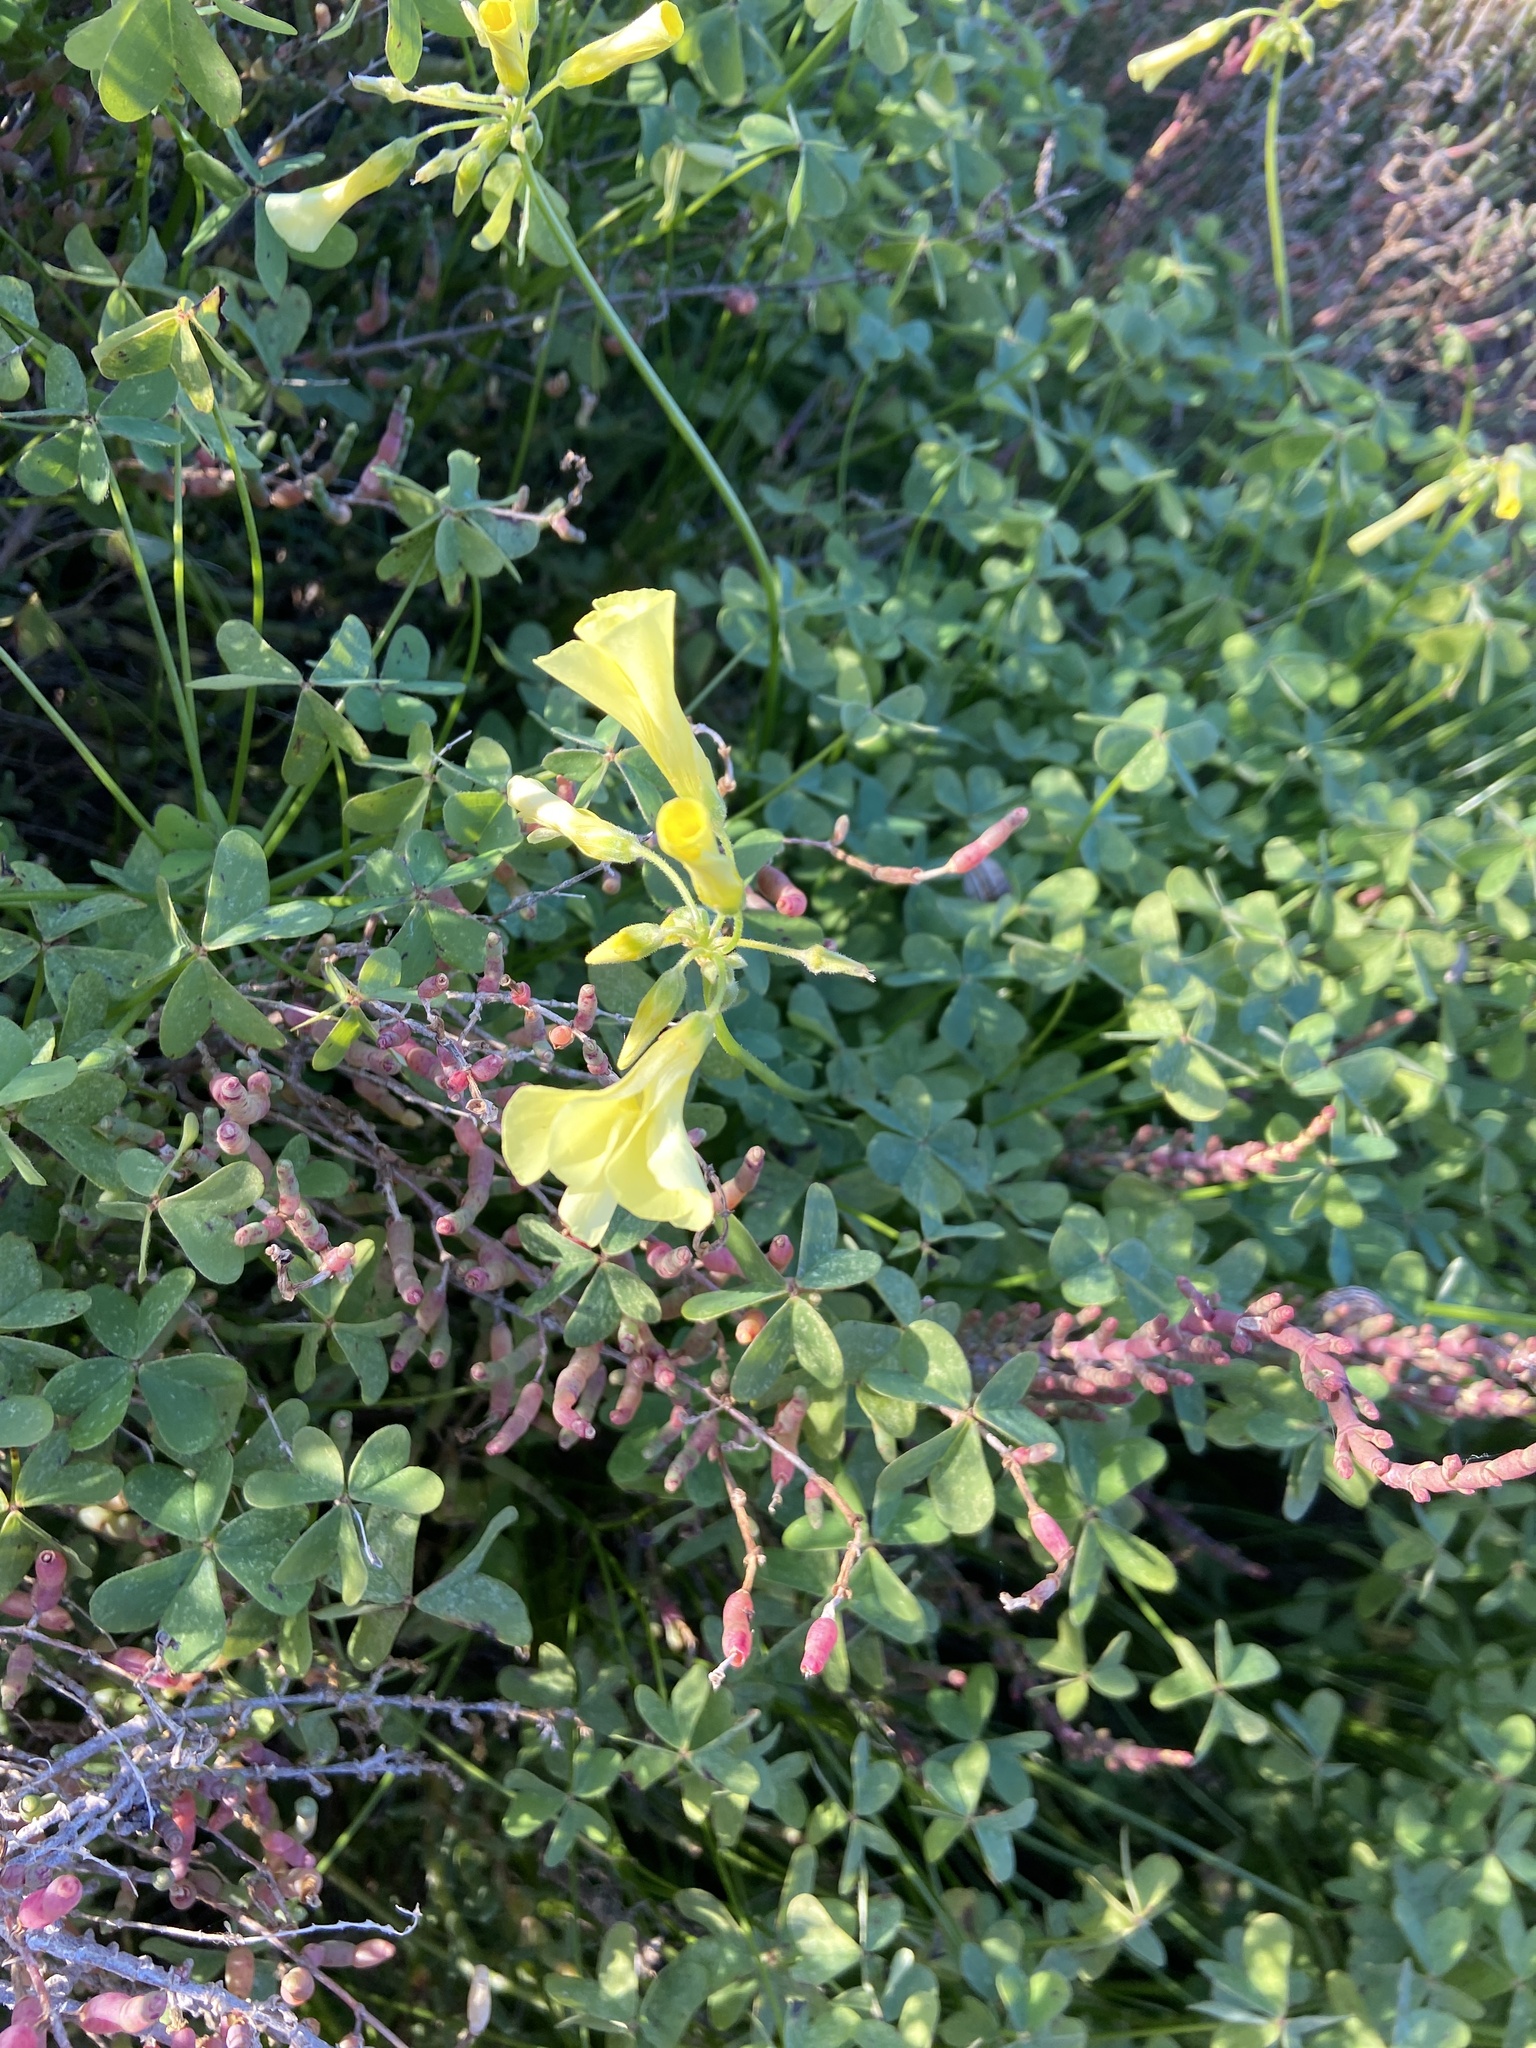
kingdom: Plantae
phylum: Tracheophyta
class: Magnoliopsida
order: Oxalidales
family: Oxalidaceae
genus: Oxalis
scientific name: Oxalis pes-caprae
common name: Bermuda-buttercup
